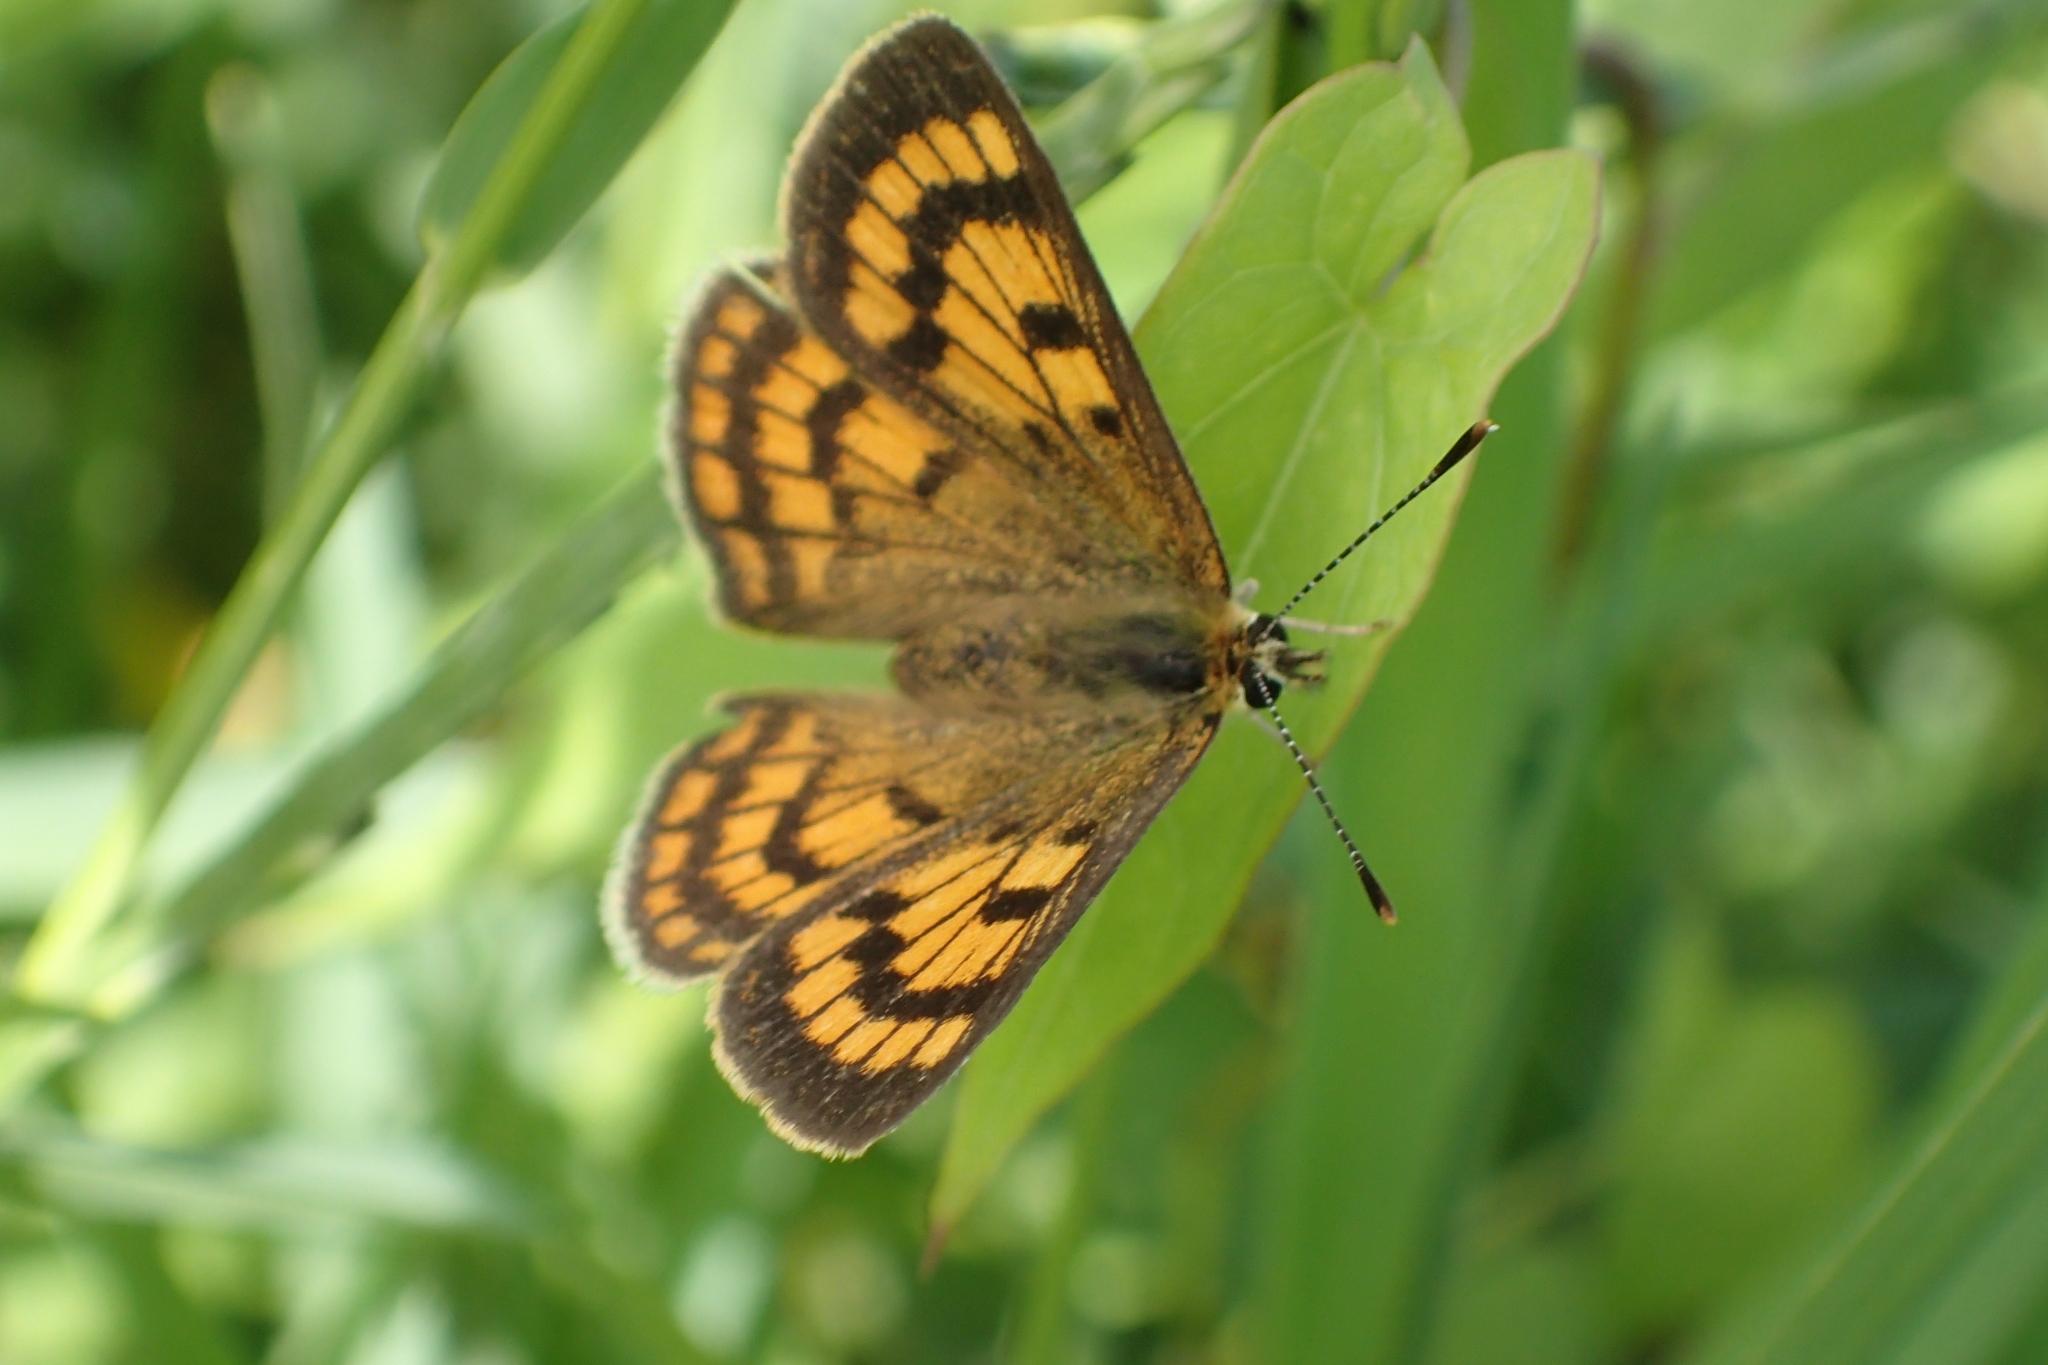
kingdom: Animalia
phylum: Arthropoda
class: Insecta
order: Lepidoptera
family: Lycaenidae
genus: Lycaena
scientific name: Lycaena salustius
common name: North island coastal copper
